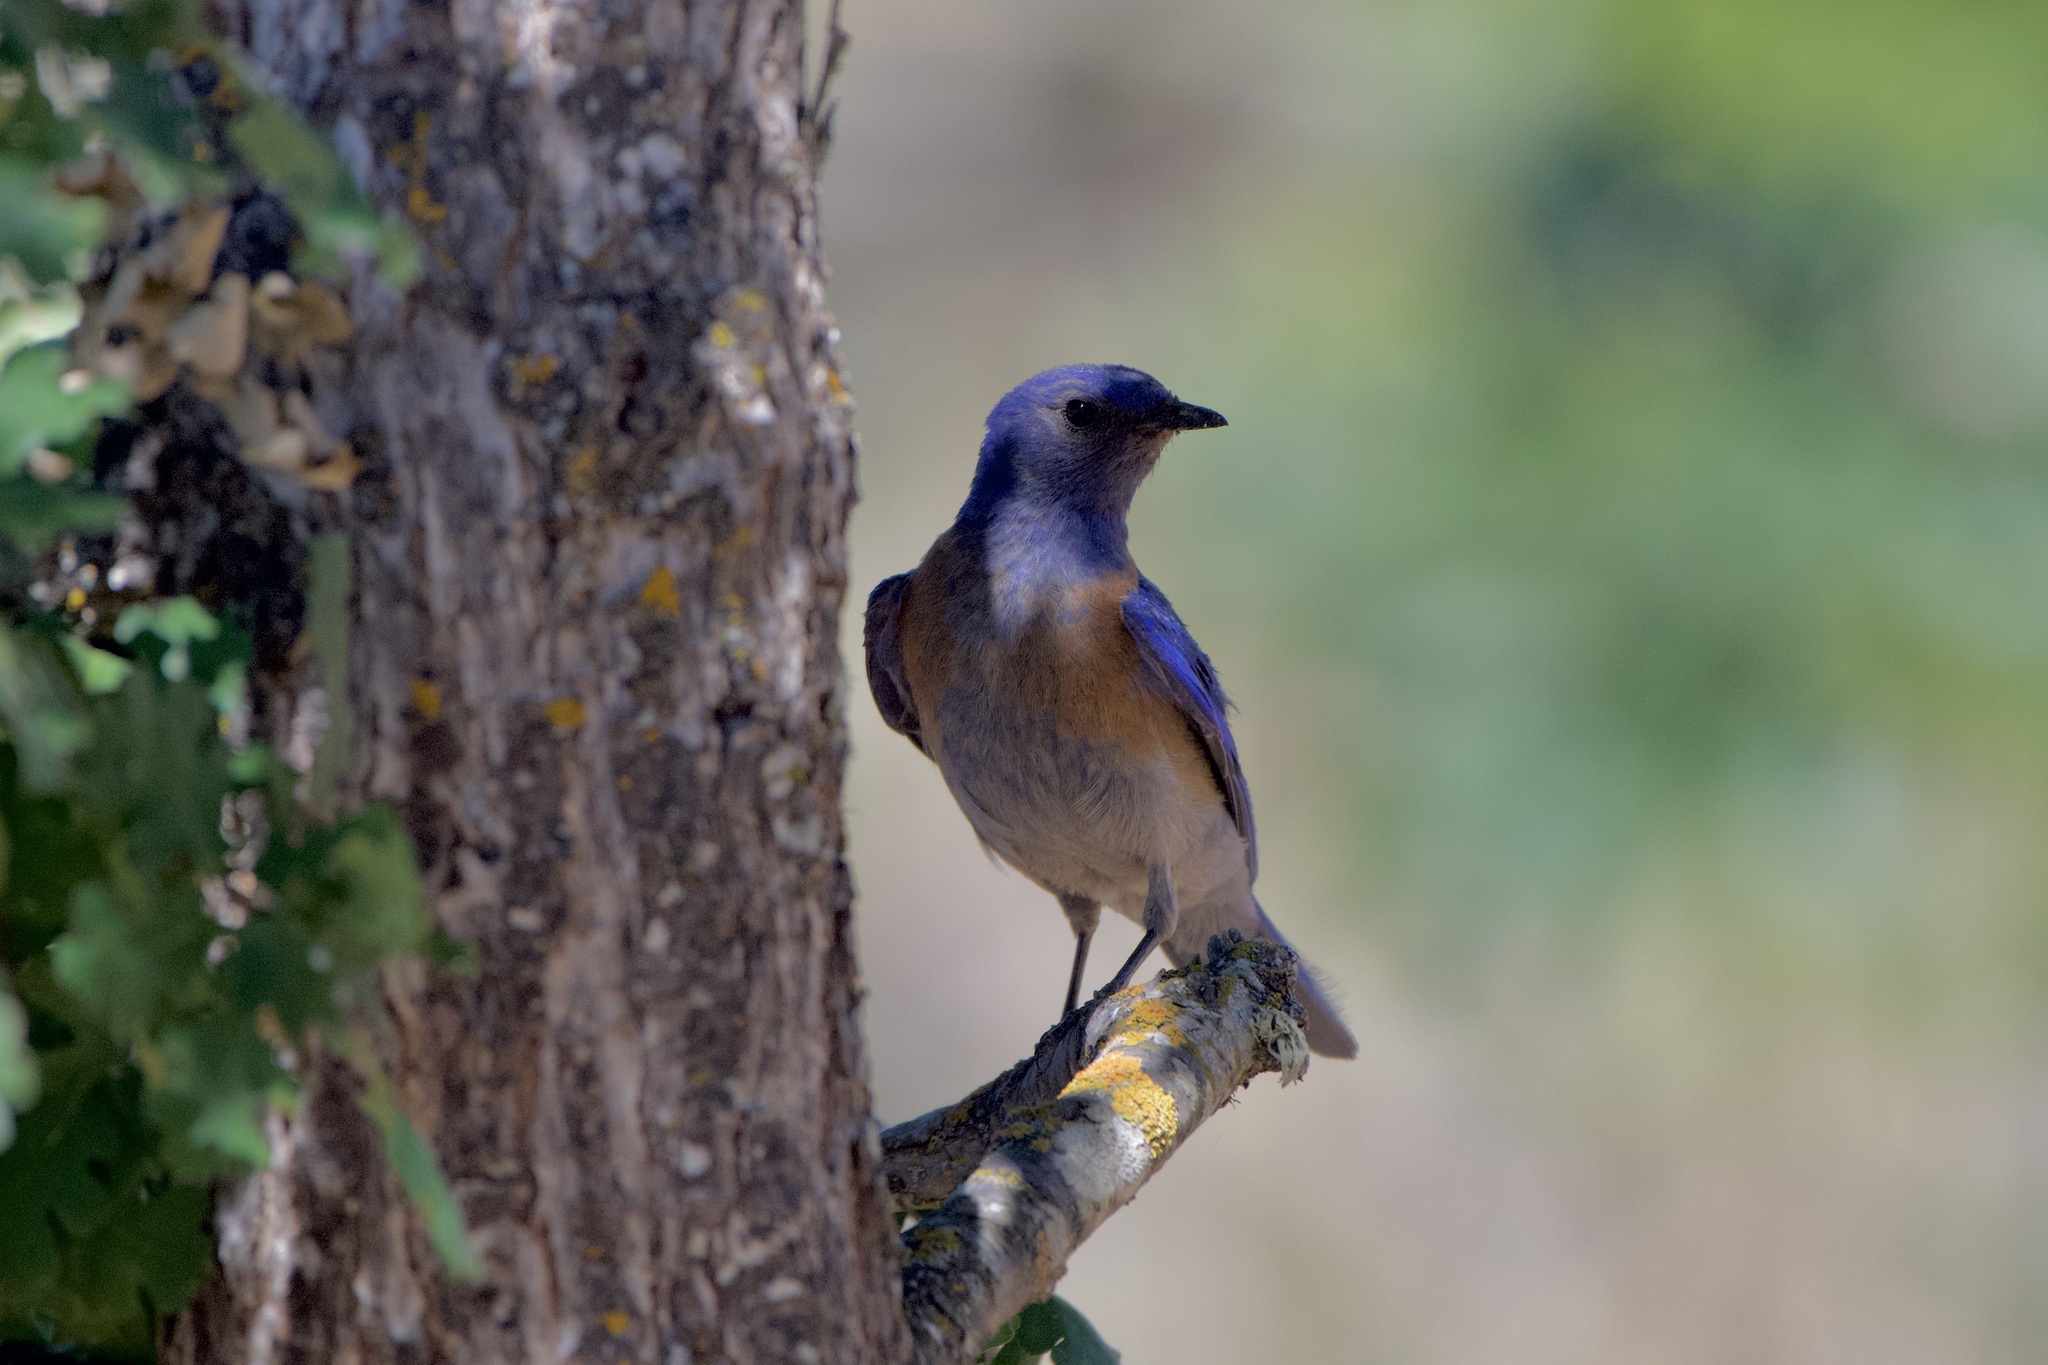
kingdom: Animalia
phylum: Chordata
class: Aves
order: Passeriformes
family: Turdidae
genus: Sialia
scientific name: Sialia mexicana
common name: Western bluebird
